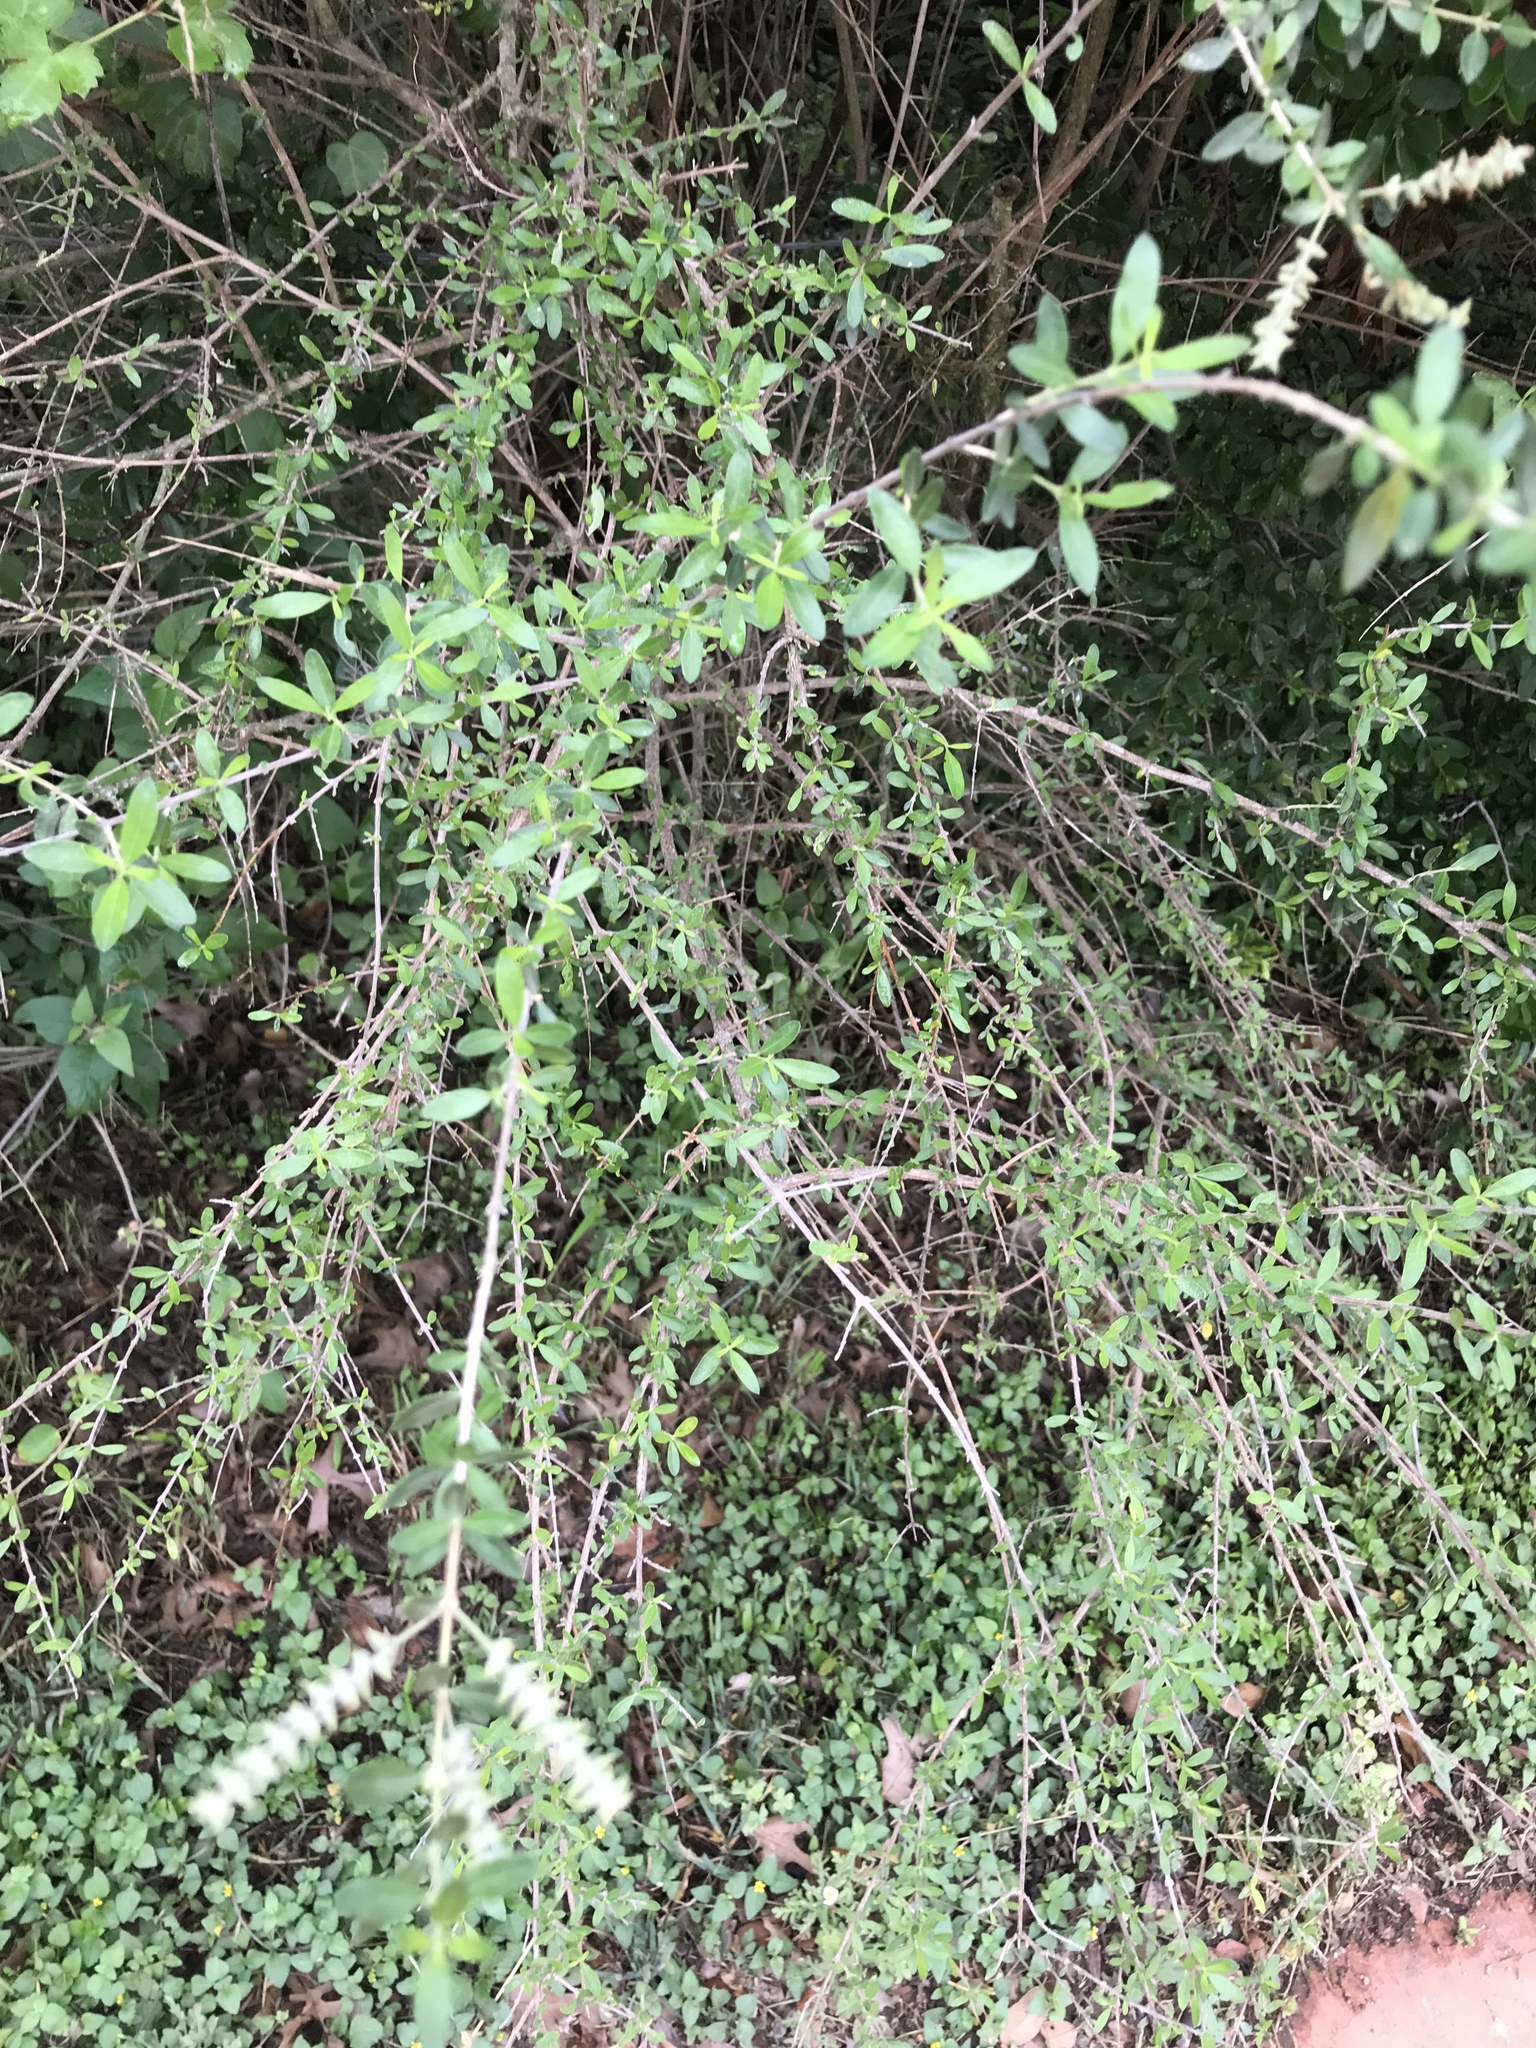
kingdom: Plantae
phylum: Tracheophyta
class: Magnoliopsida
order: Lamiales
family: Verbenaceae
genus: Aloysia
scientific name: Aloysia gratissima
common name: Common bee-brush
